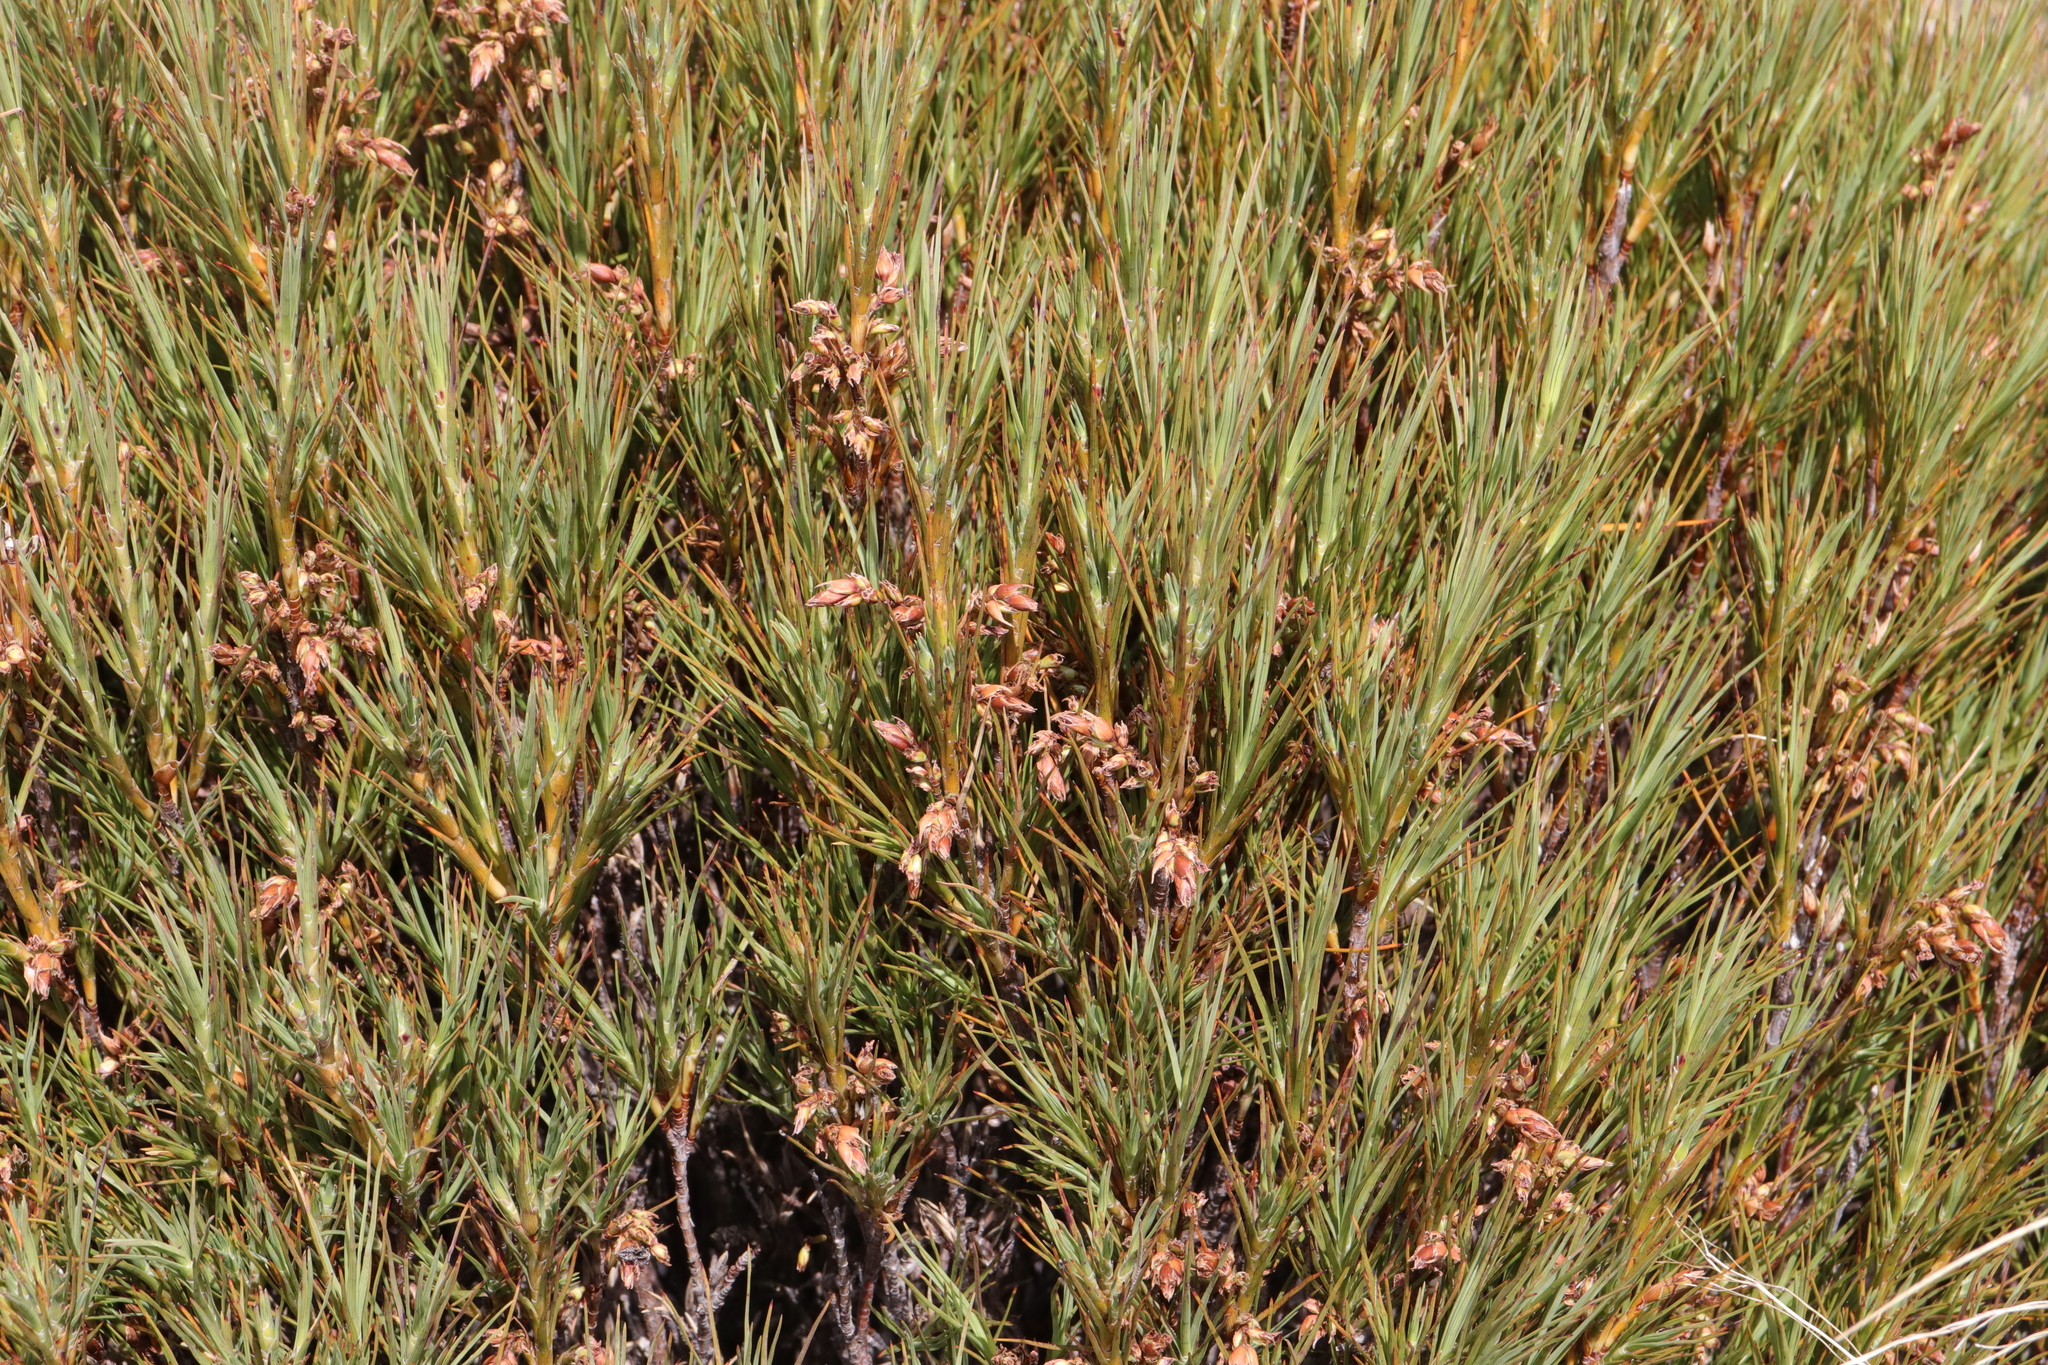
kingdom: Plantae
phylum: Tracheophyta
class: Magnoliopsida
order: Ericales
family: Ericaceae
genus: Dracophyllum
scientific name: Dracophyllum longifolium
